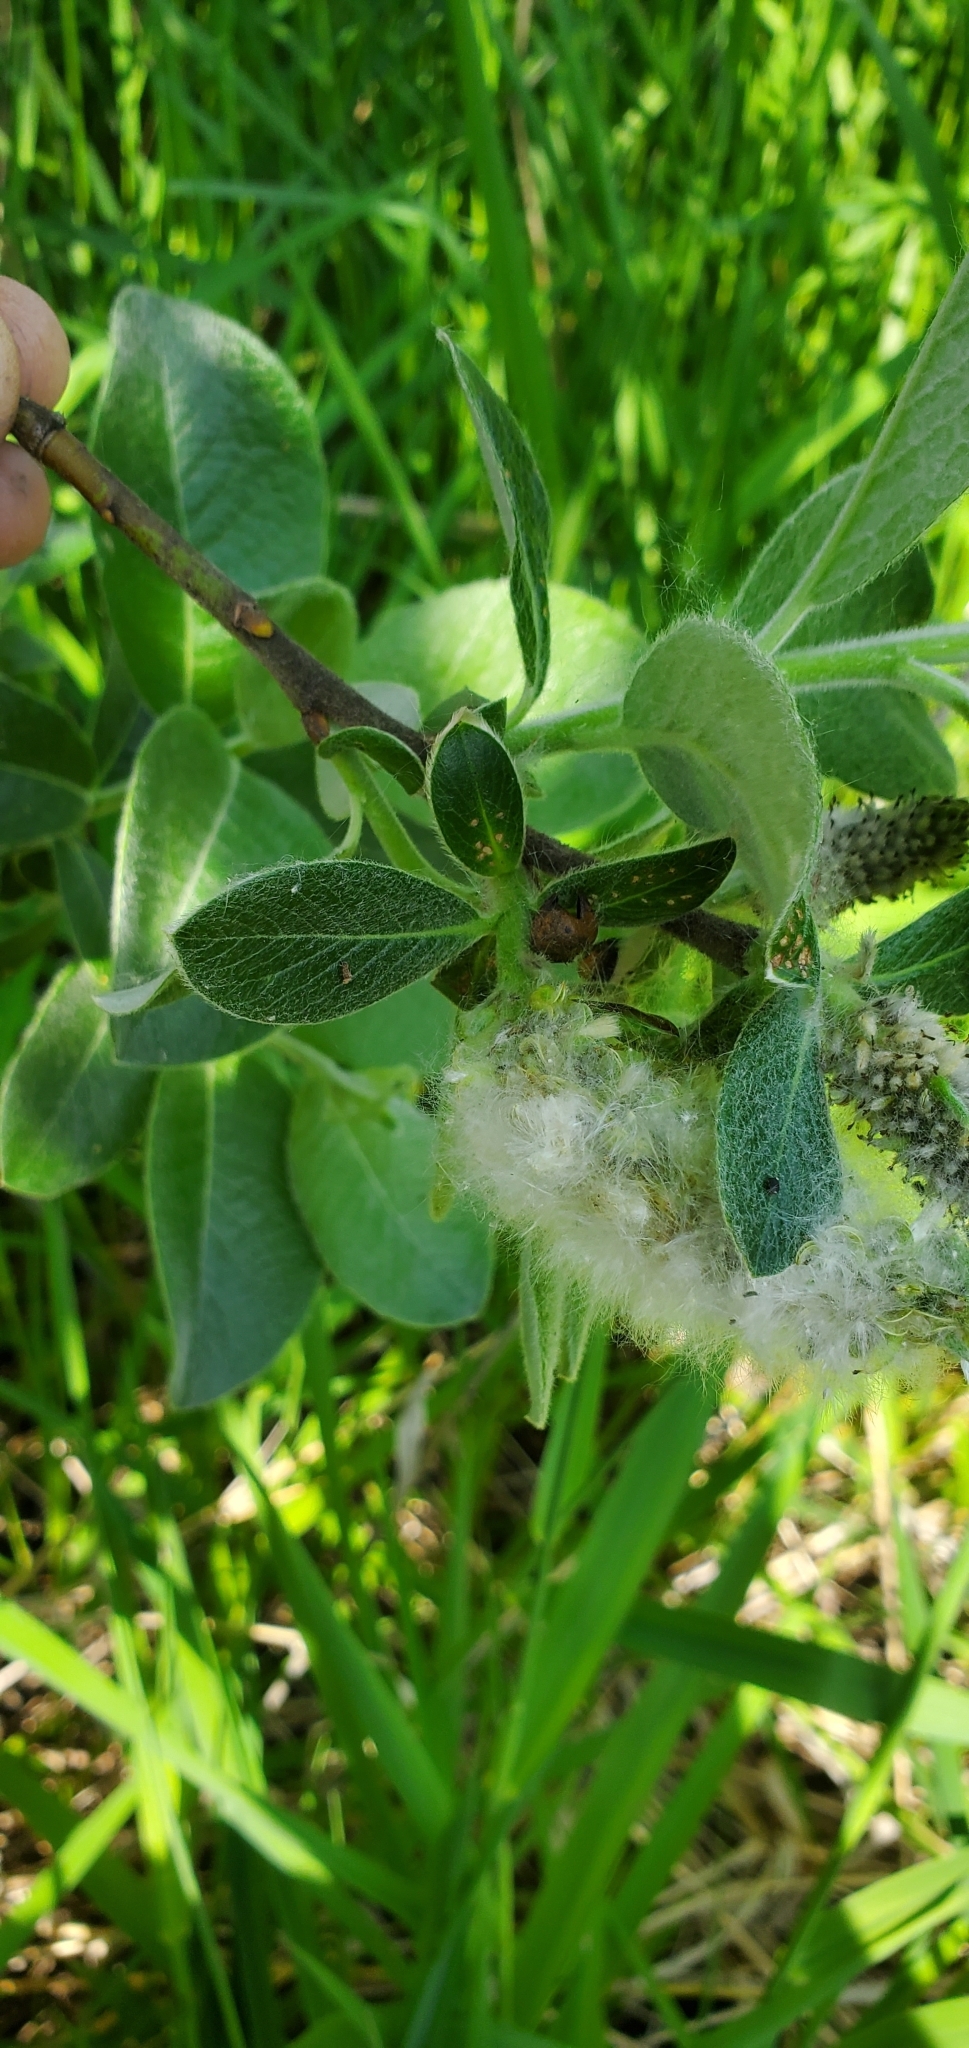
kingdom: Plantae
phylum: Tracheophyta
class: Magnoliopsida
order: Malpighiales
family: Salicaceae
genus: Salix
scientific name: Salix hookeriana
